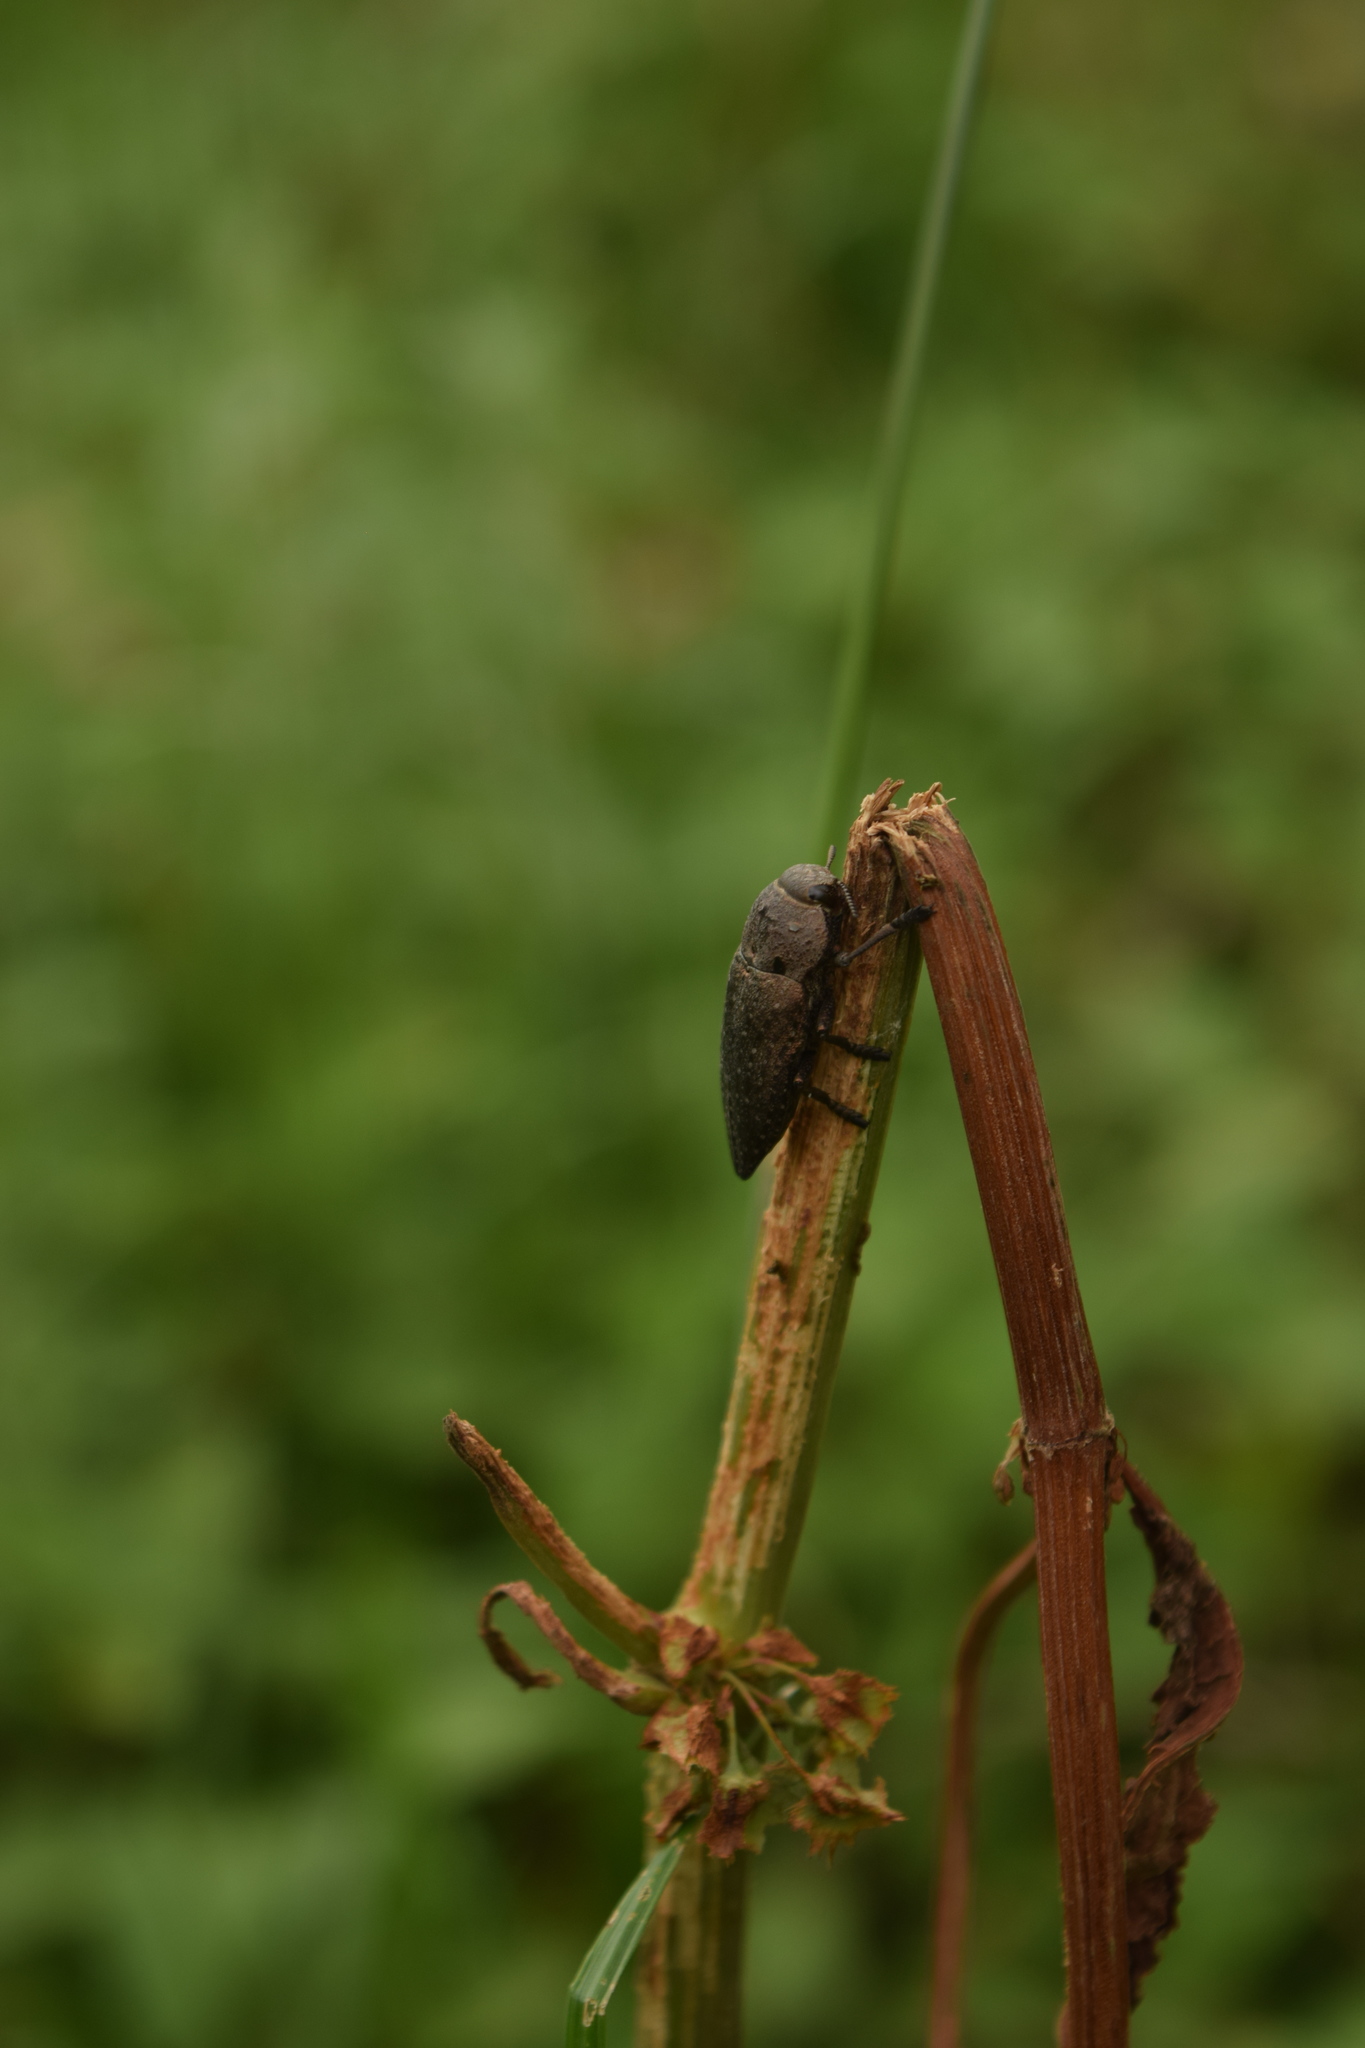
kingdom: Animalia
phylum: Arthropoda
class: Insecta
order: Coleoptera
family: Buprestidae
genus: Capnodis
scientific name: Capnodis tenebricosa
